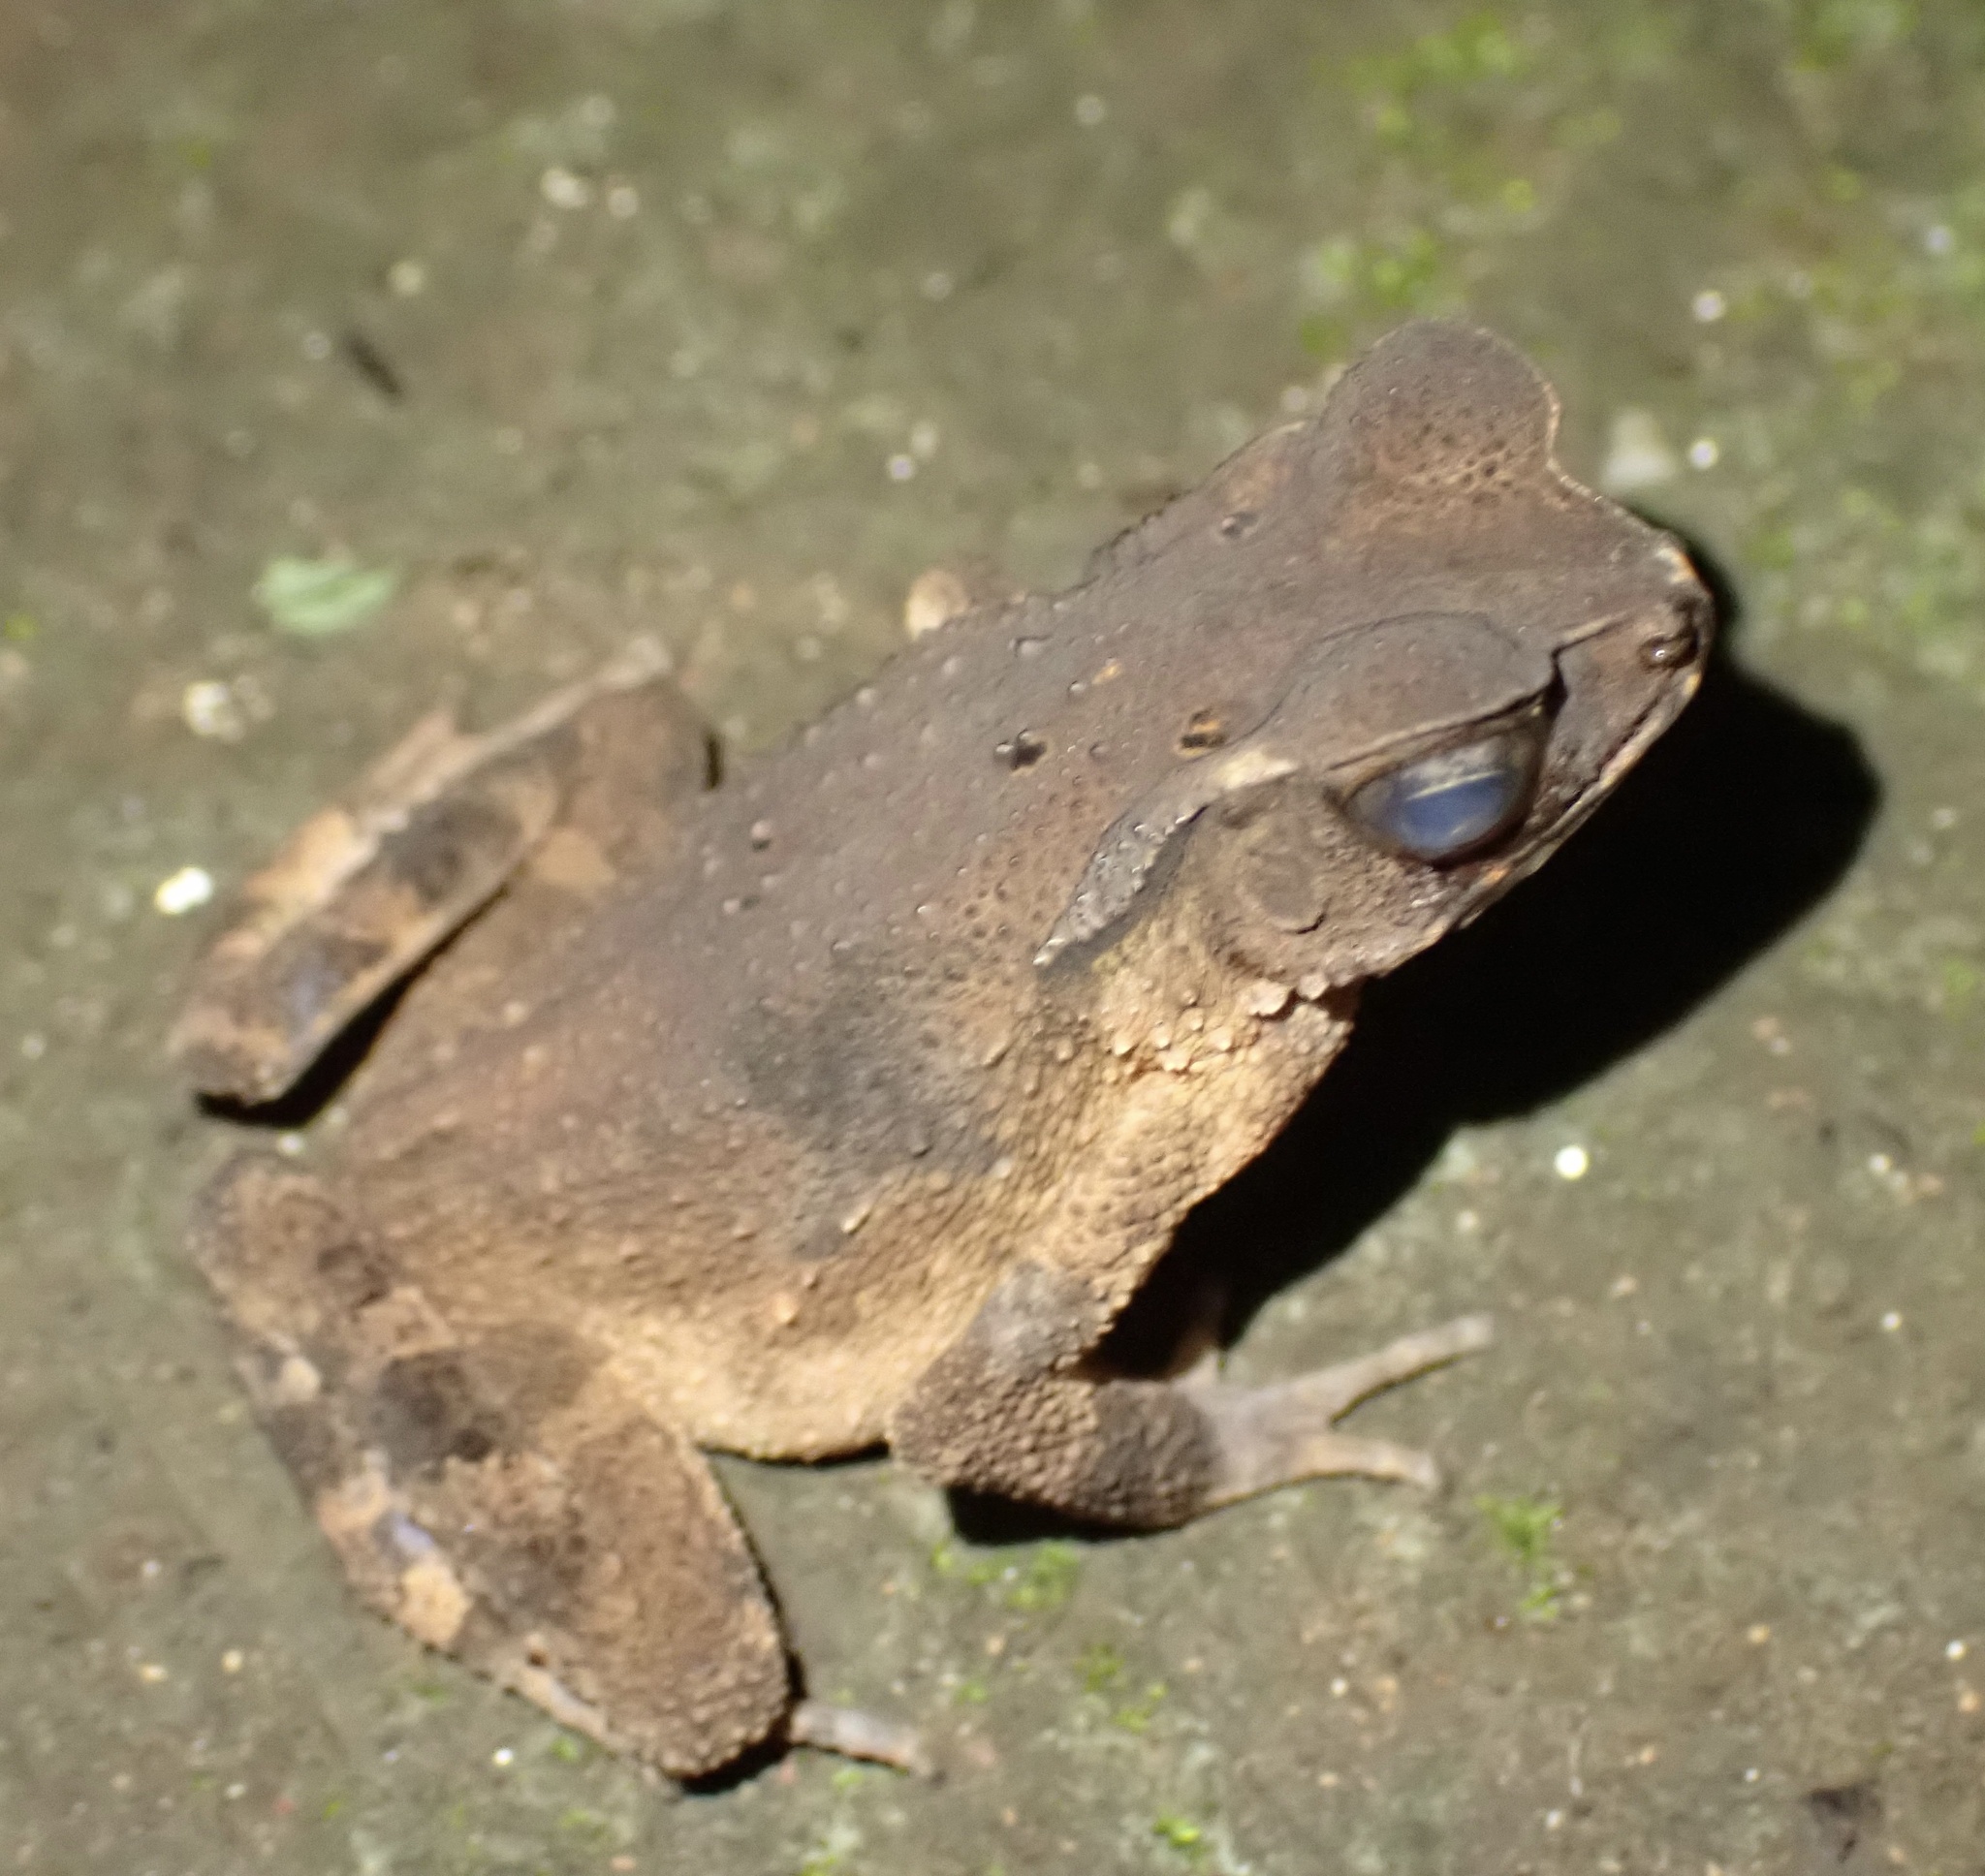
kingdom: Animalia
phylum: Chordata
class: Amphibia
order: Anura
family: Bufonidae
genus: Ingerophrynus
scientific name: Ingerophrynus celebensis
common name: Celebes toad
